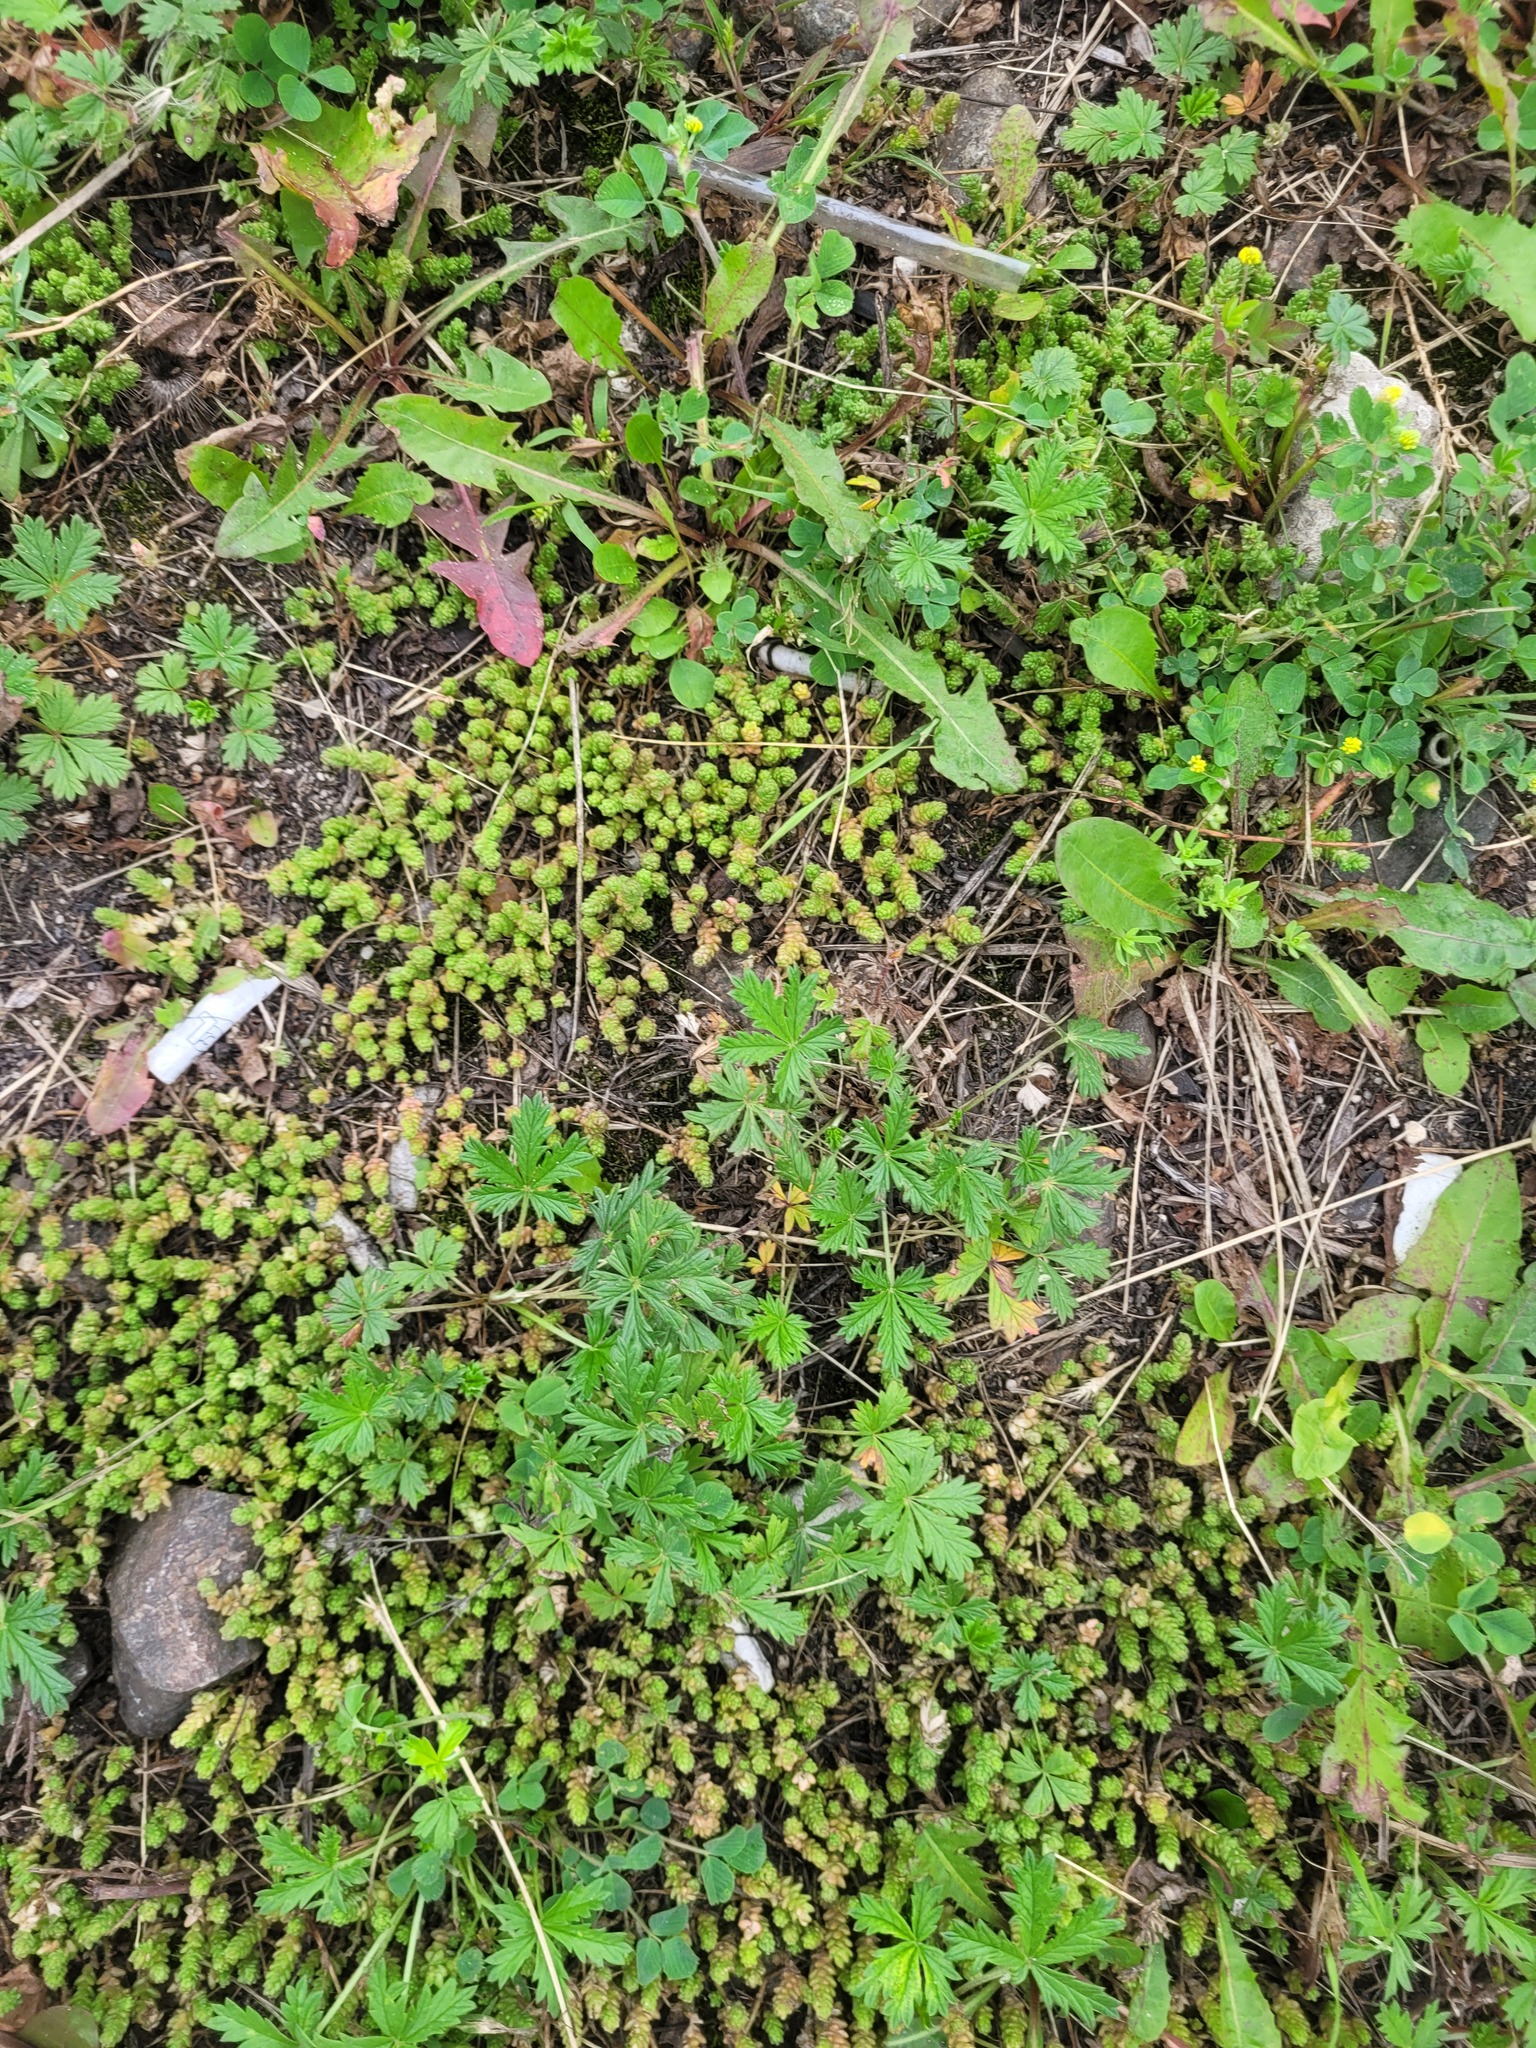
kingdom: Plantae
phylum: Tracheophyta
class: Magnoliopsida
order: Rosales
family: Rosaceae
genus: Potentilla
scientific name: Potentilla argentea
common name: Hoary cinquefoil
